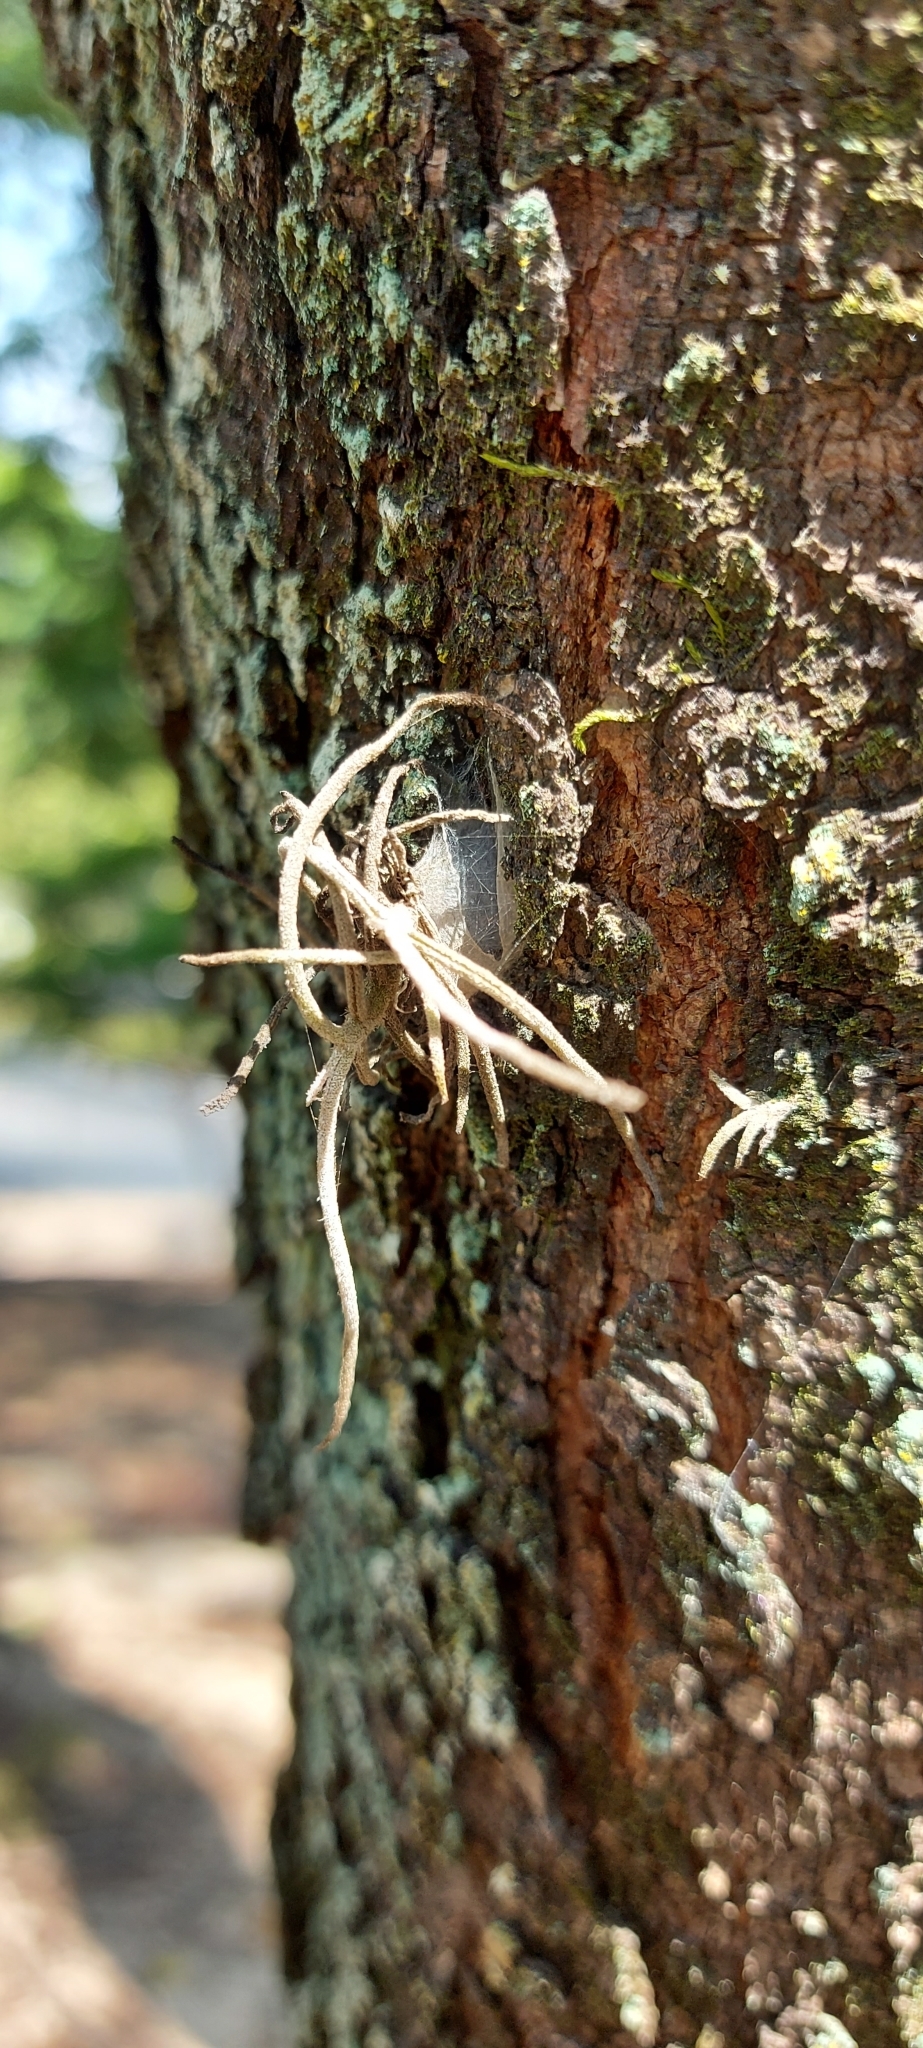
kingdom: Plantae
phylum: Tracheophyta
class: Liliopsida
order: Poales
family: Bromeliaceae
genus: Tillandsia
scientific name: Tillandsia recurvata
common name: Small ballmoss
